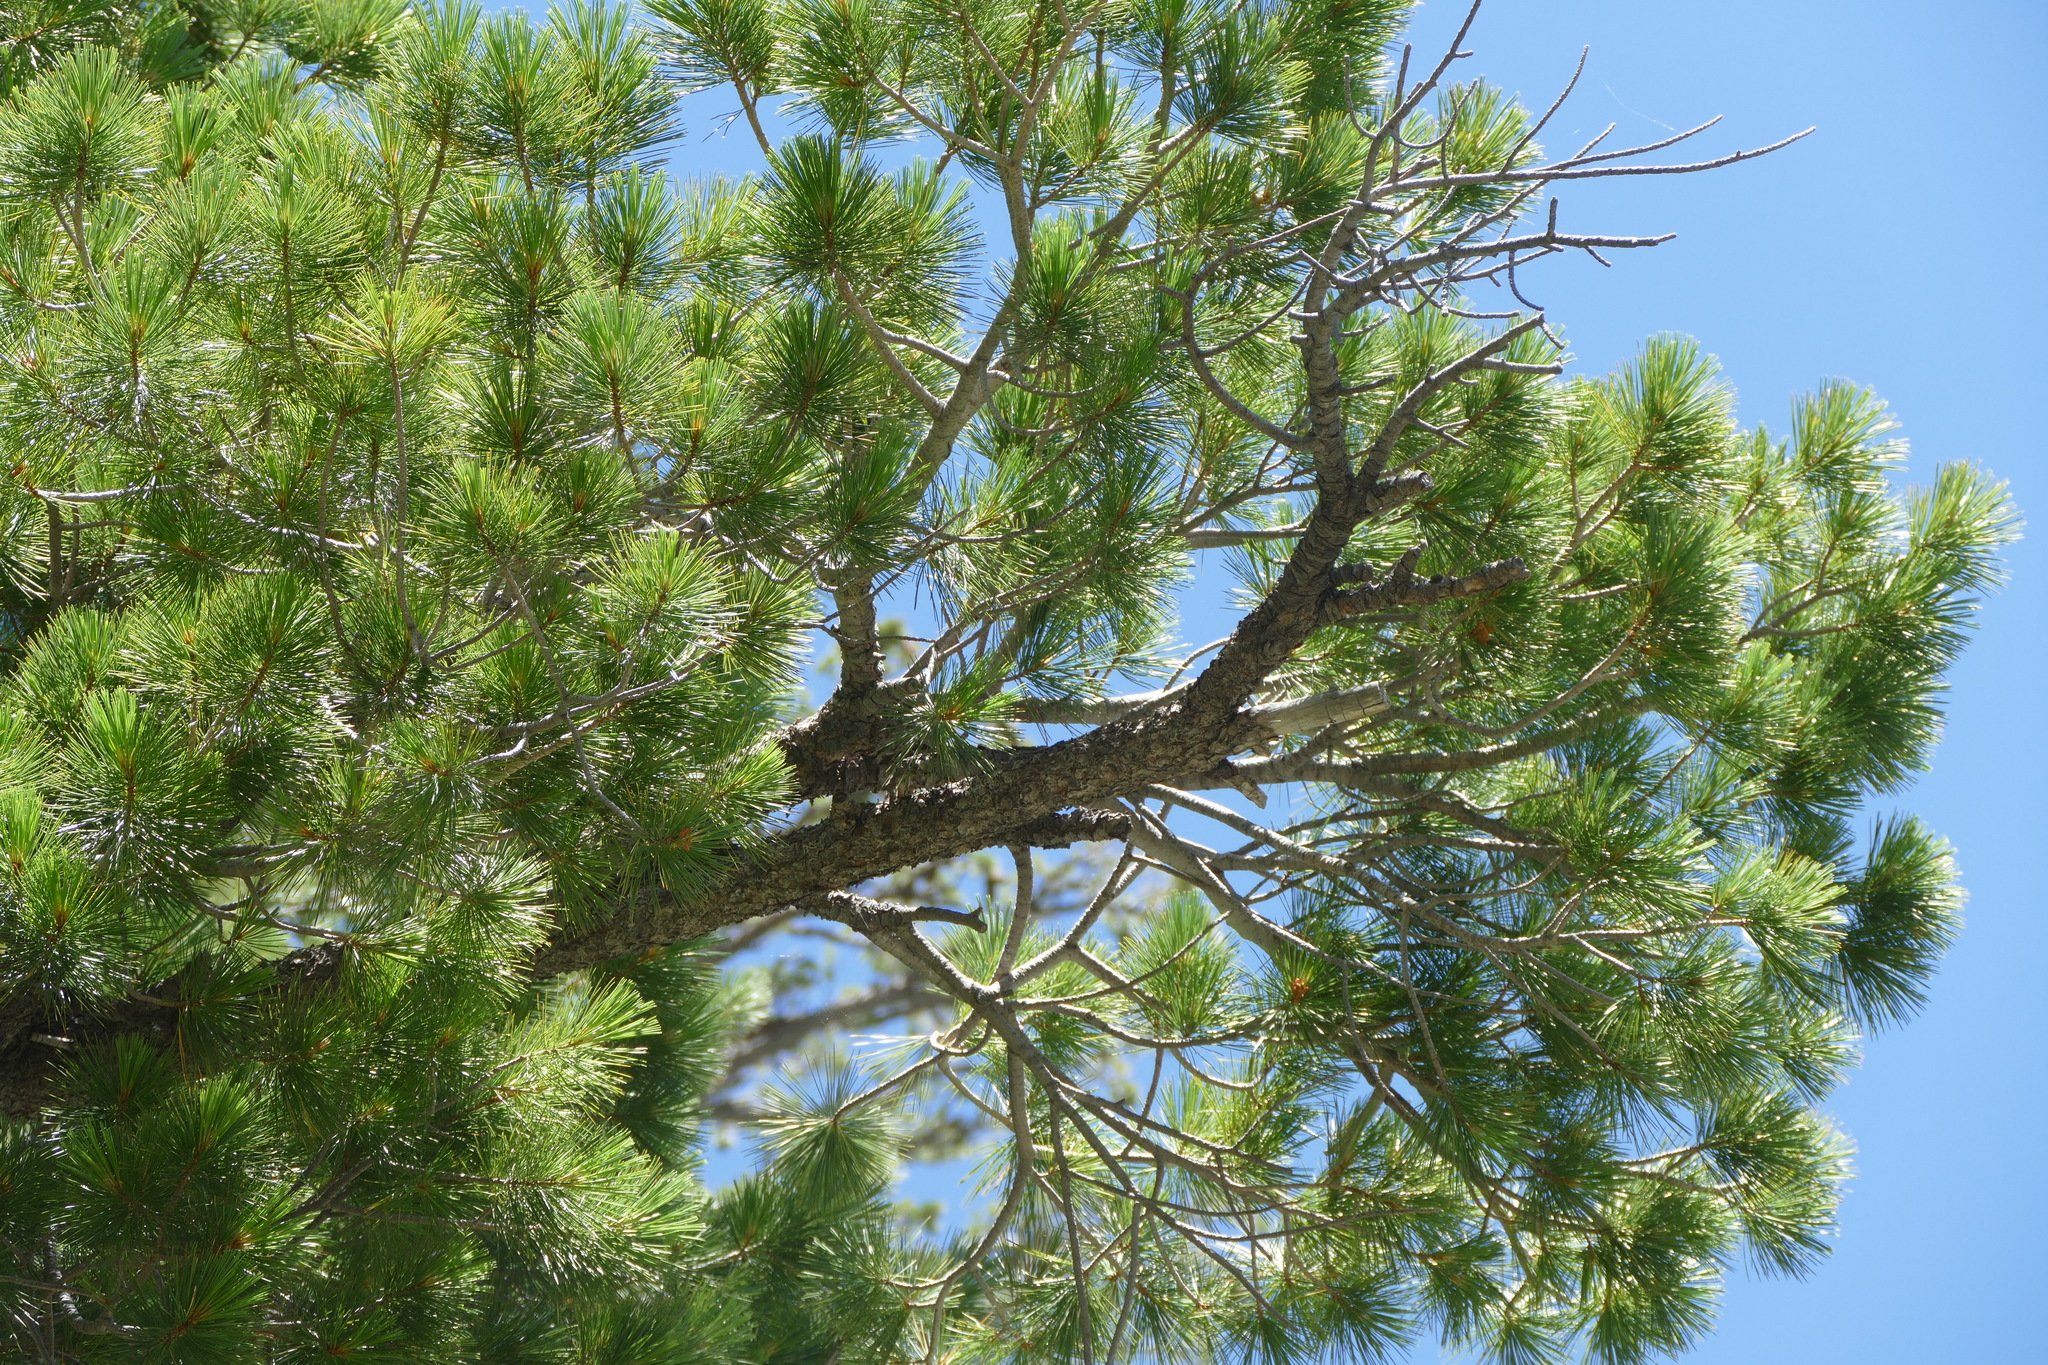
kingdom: Plantae
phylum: Tracheophyta
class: Pinopsida
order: Pinales
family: Pinaceae
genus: Pinus
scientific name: Pinus lambertiana
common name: Sugar pine
